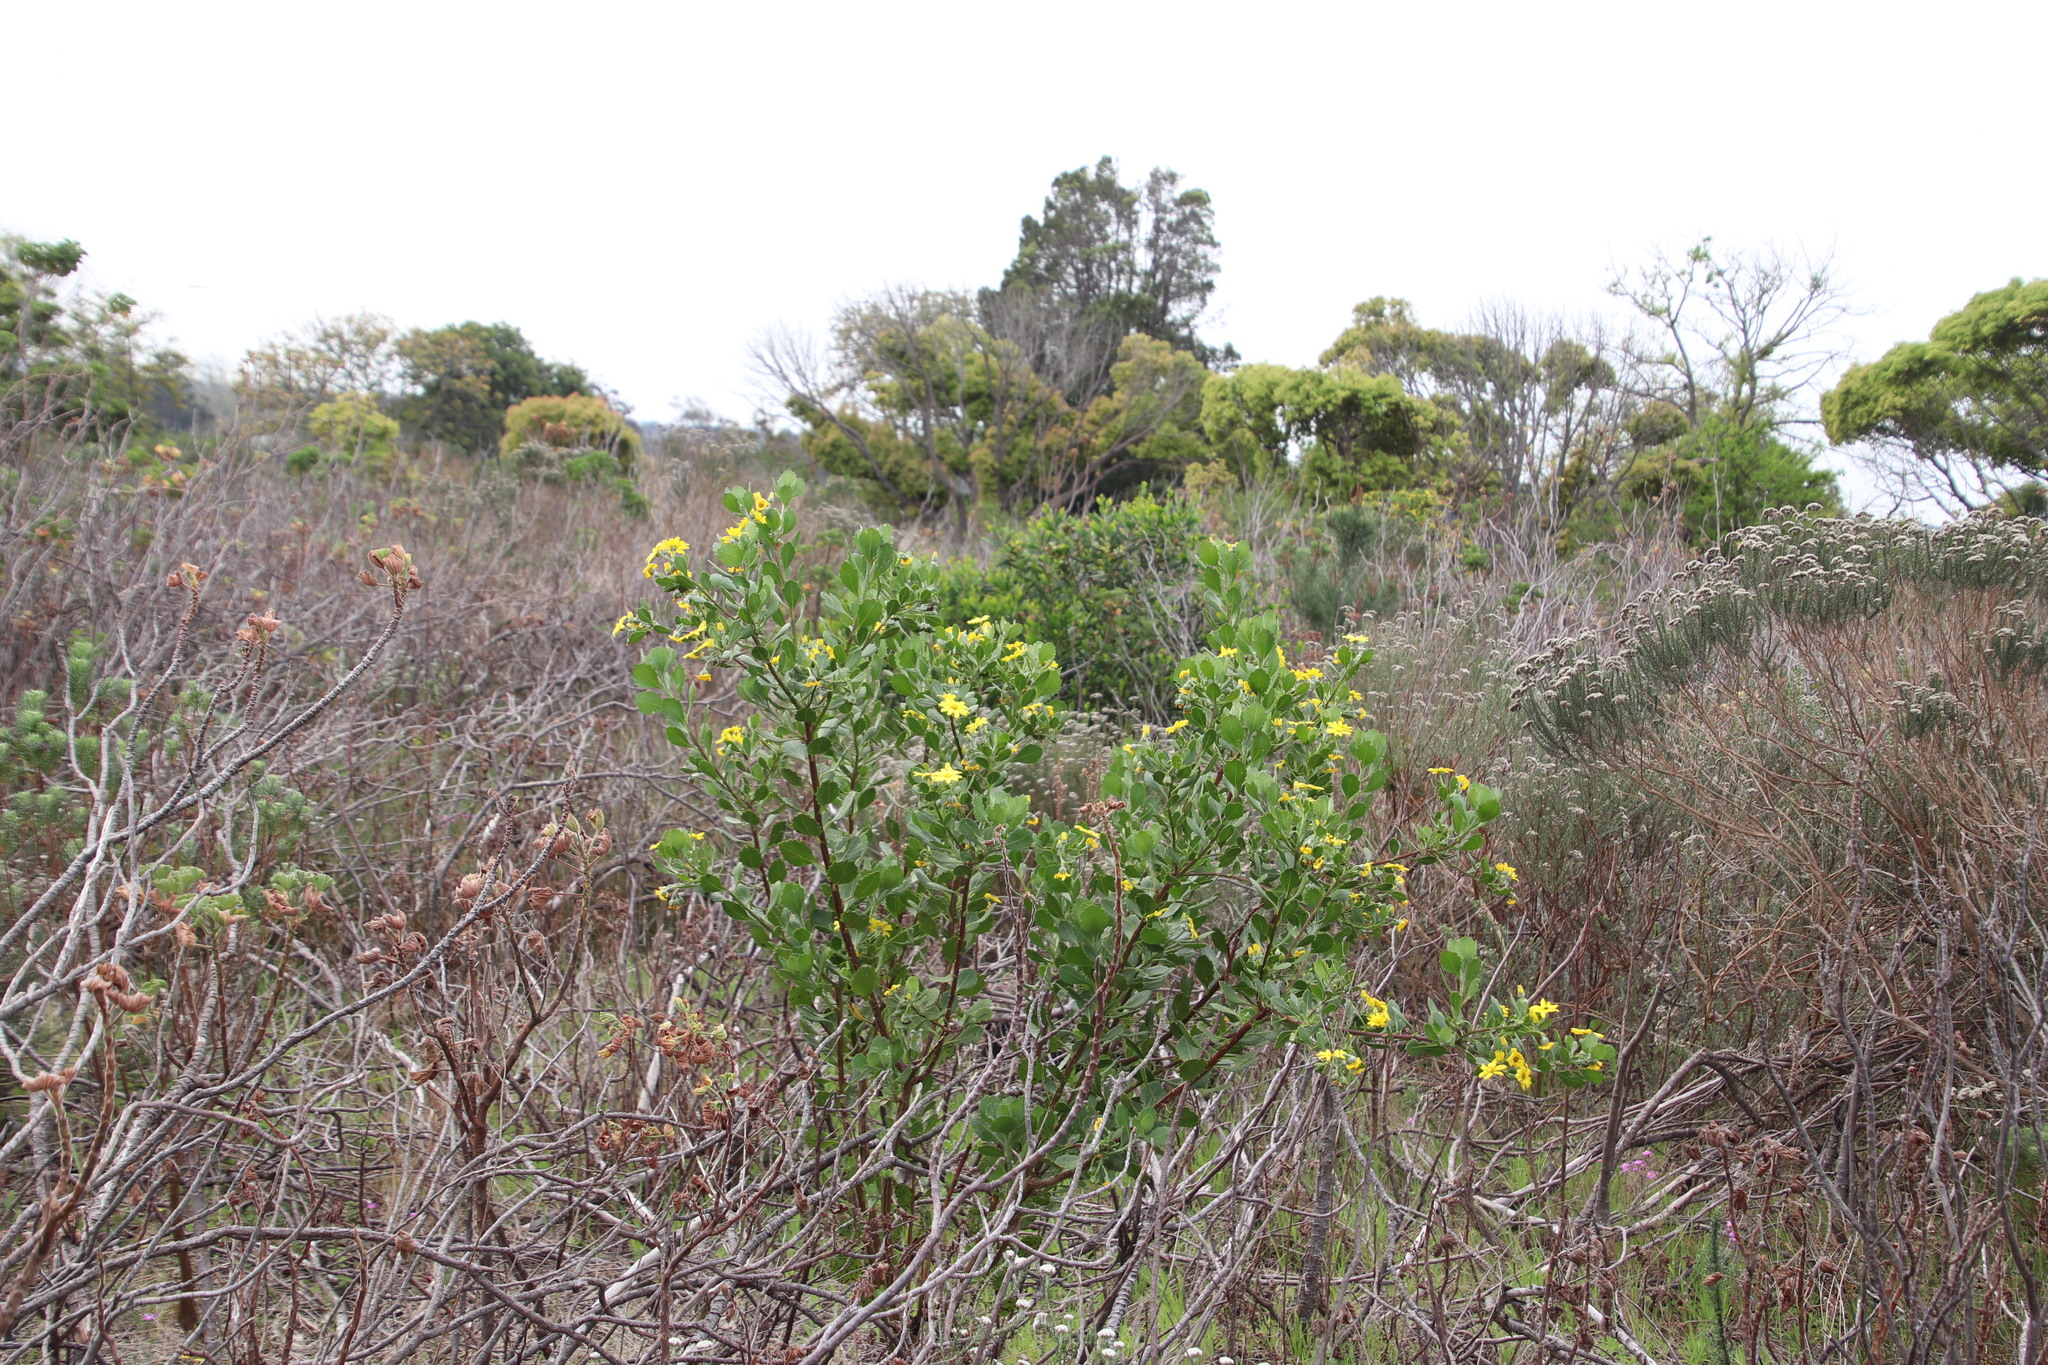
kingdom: Plantae
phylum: Tracheophyta
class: Magnoliopsida
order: Asterales
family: Asteraceae
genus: Osteospermum
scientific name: Osteospermum moniliferum
